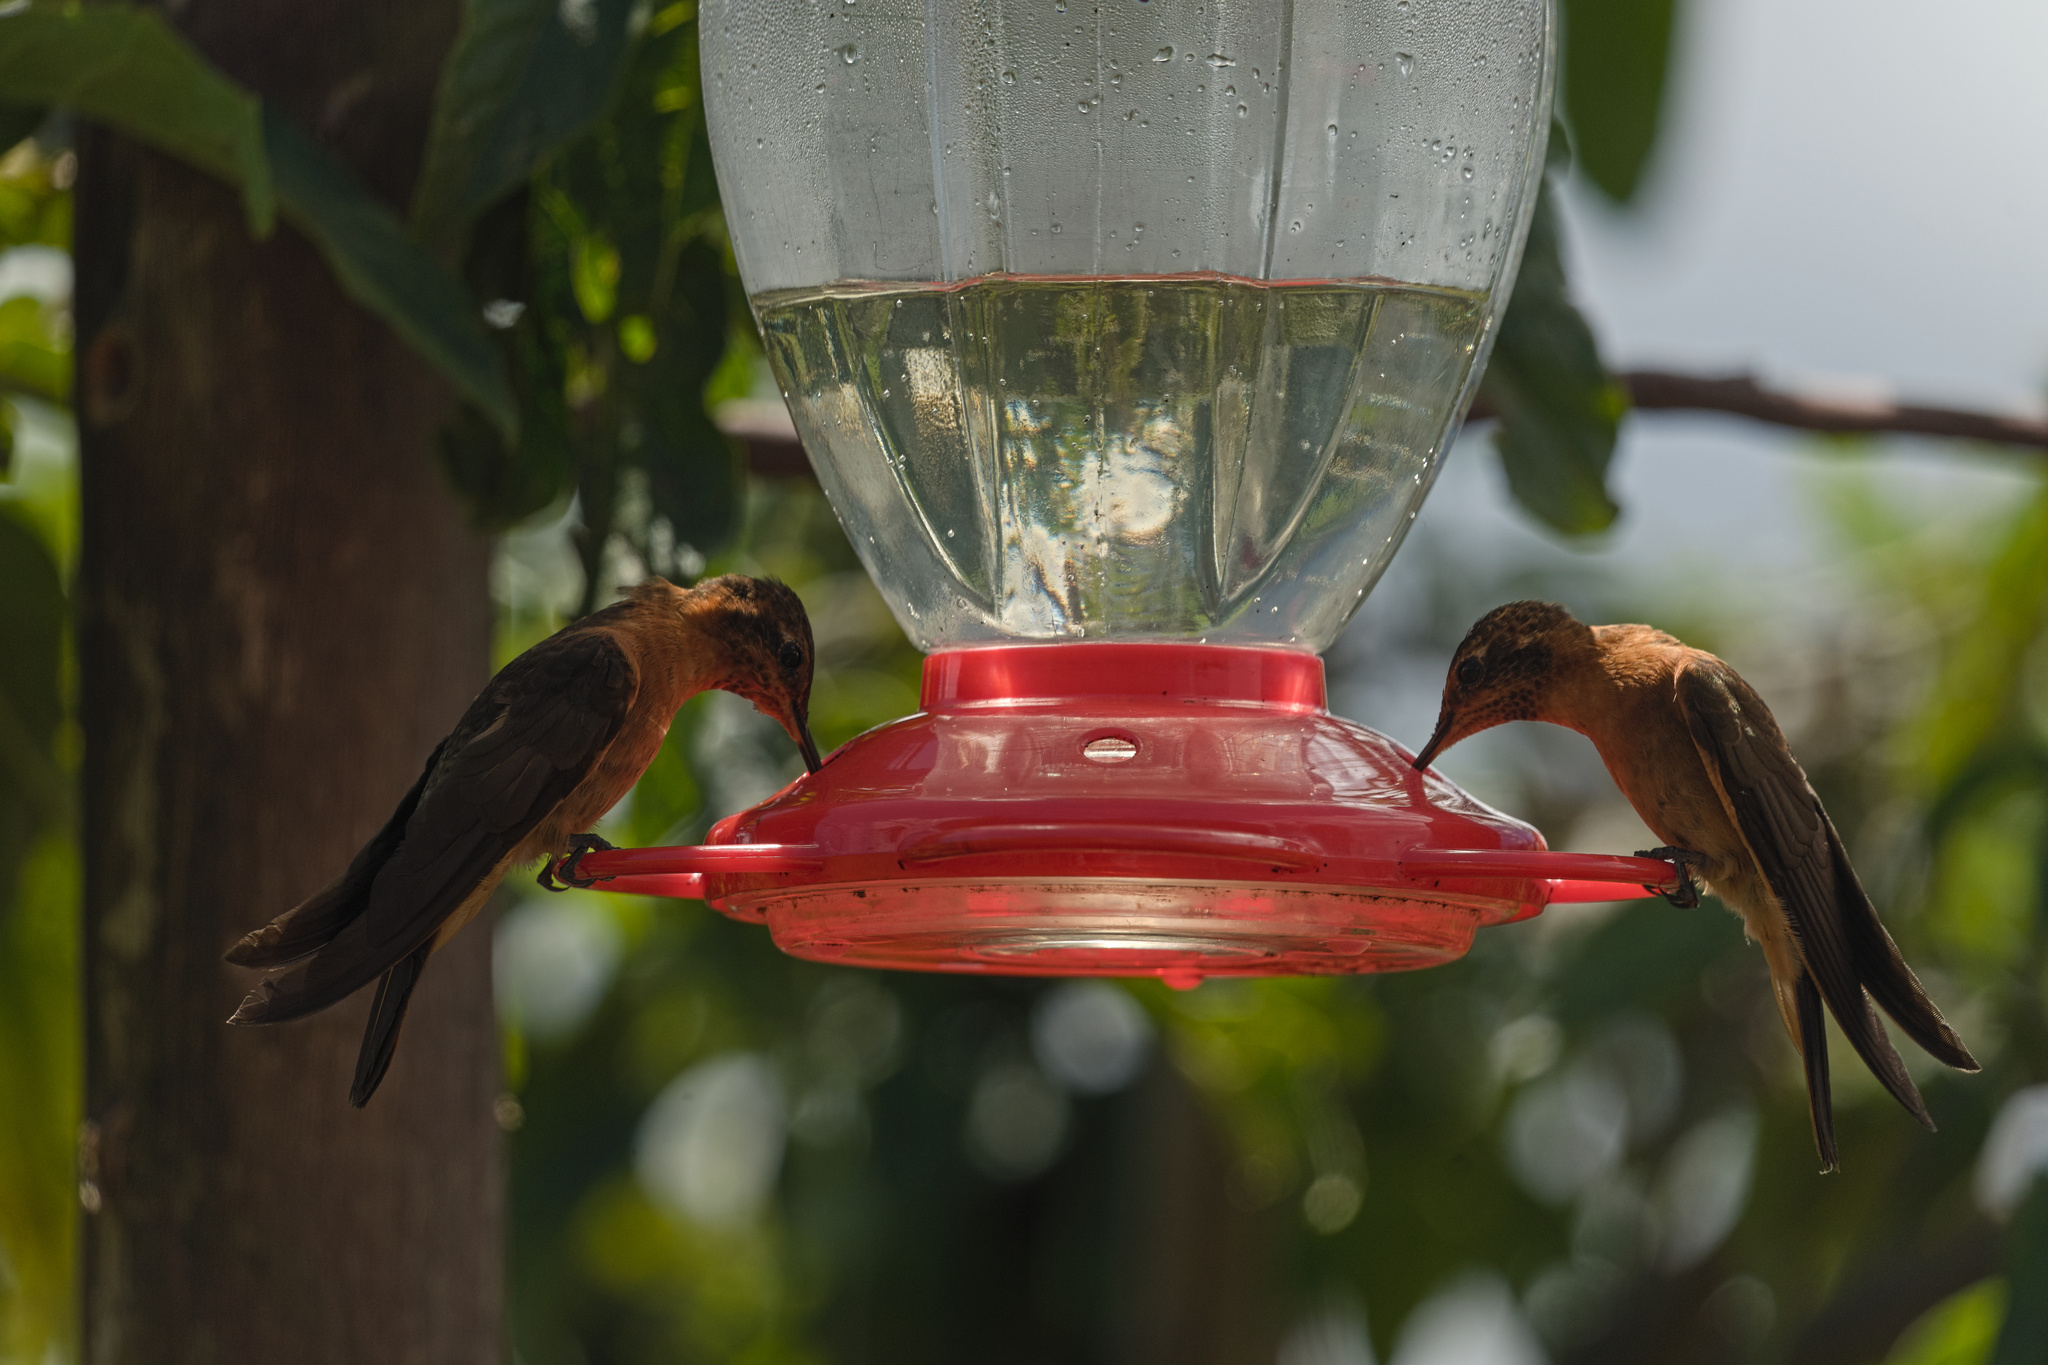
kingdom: Animalia
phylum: Chordata
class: Aves
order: Apodiformes
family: Trochilidae
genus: Aglaeactis
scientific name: Aglaeactis cupripennis
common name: Shining sunbeam
